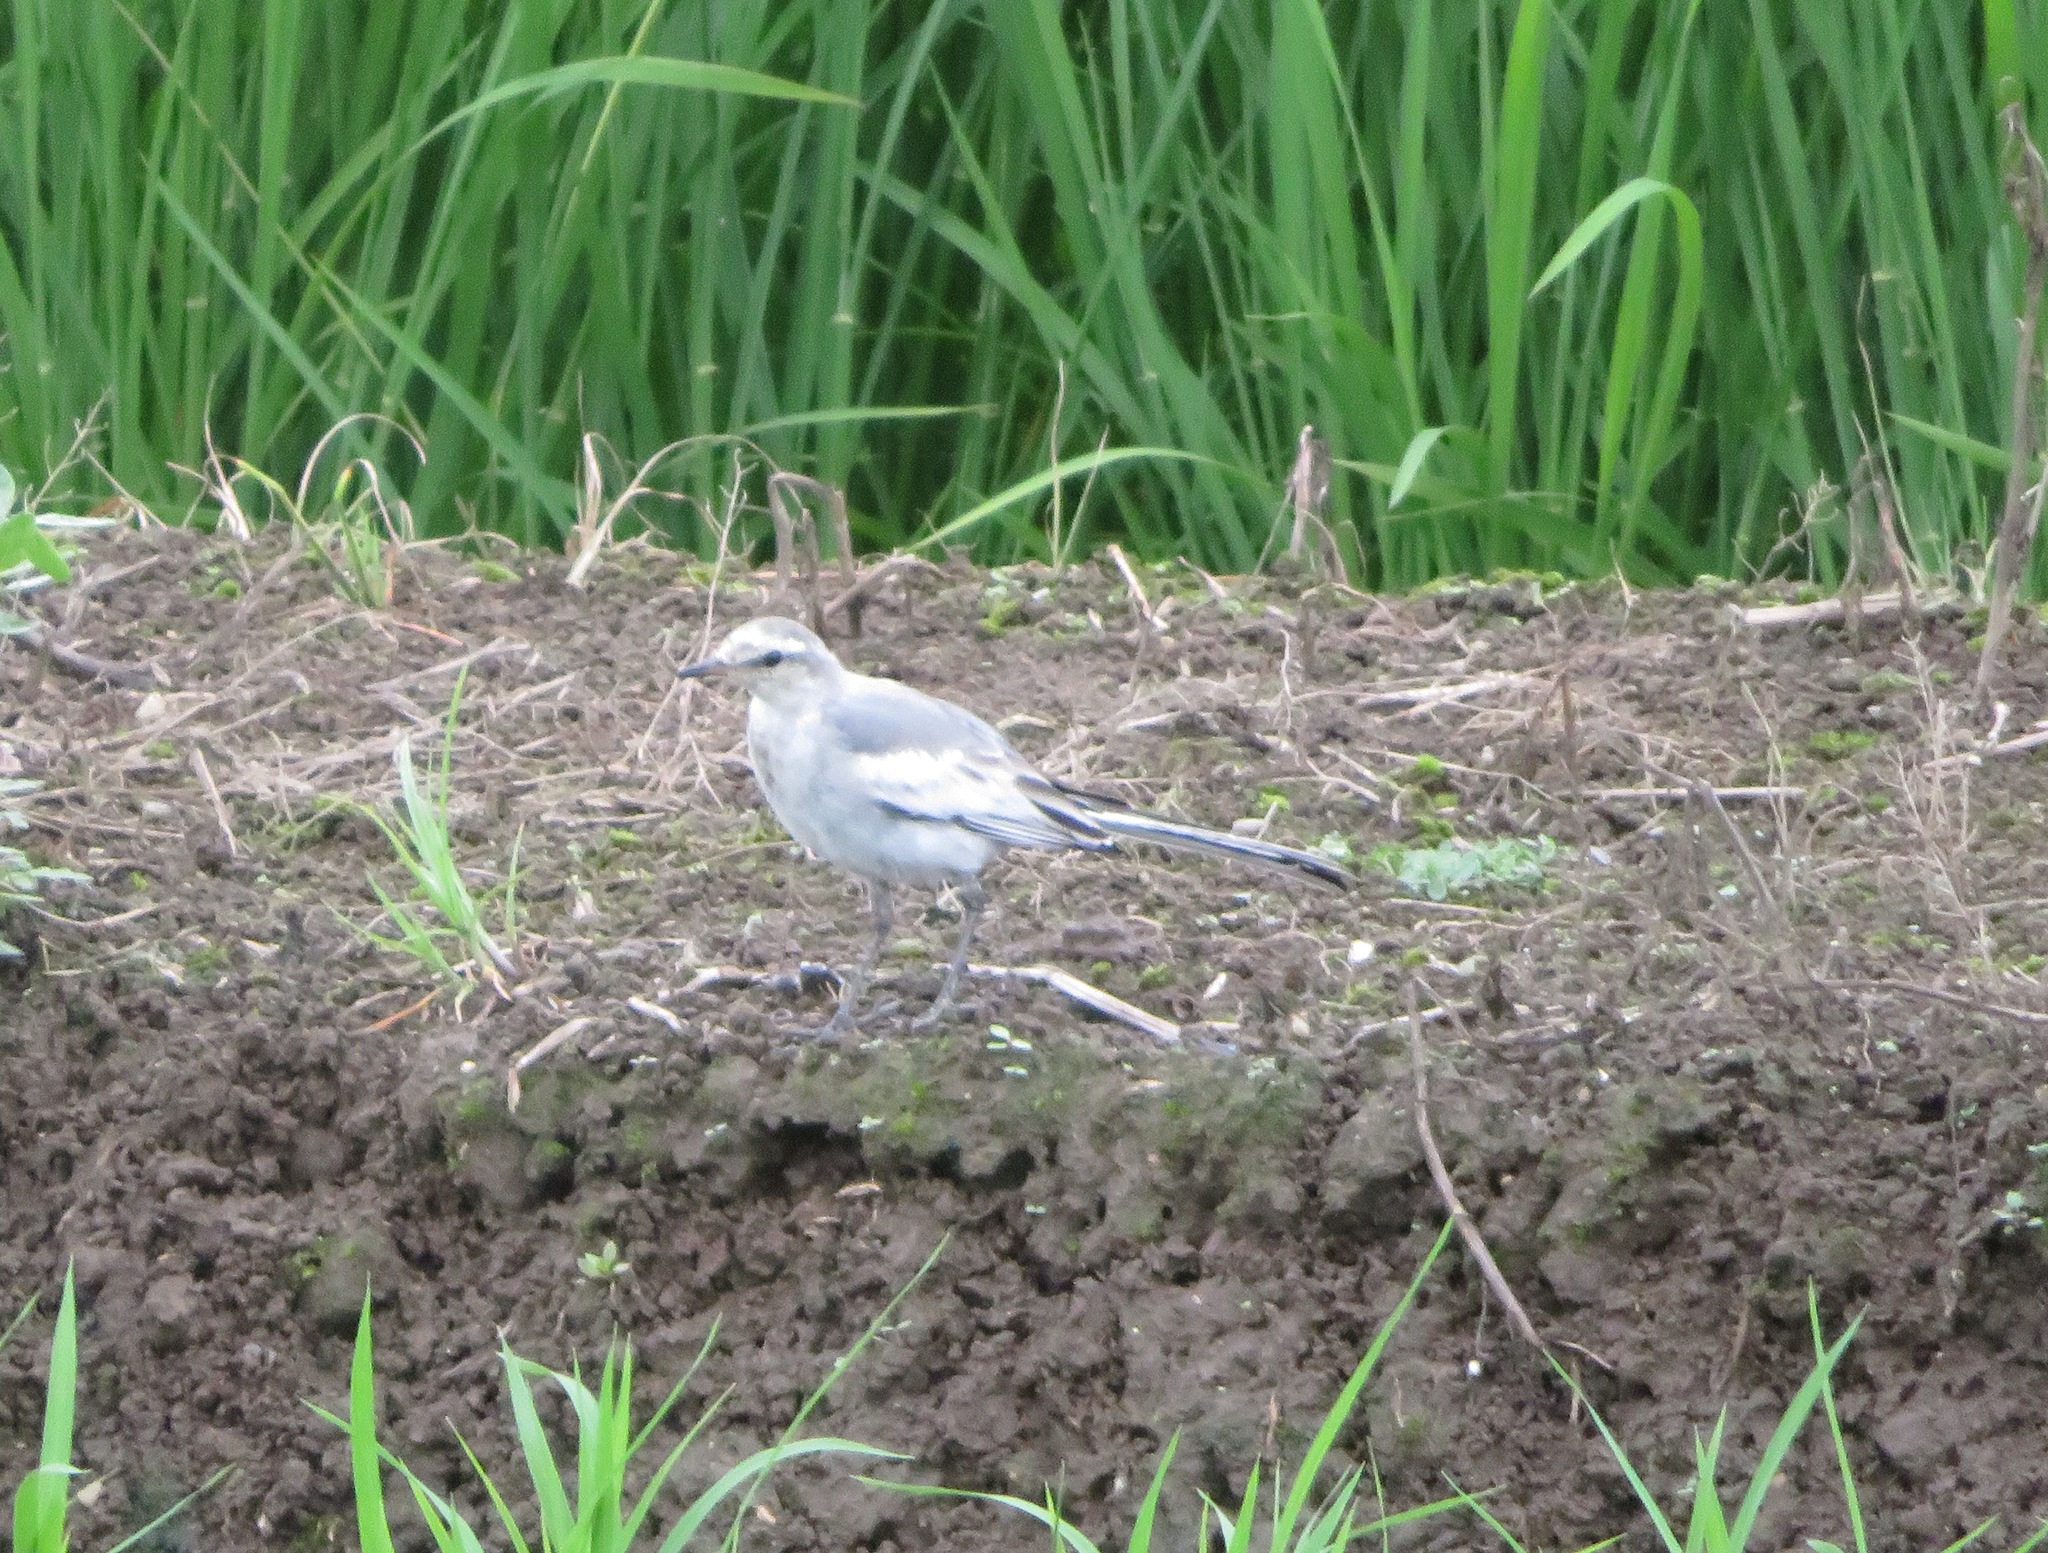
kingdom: Animalia
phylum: Chordata
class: Aves
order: Passeriformes
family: Motacillidae
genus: Motacilla
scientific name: Motacilla alba
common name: White wagtail
